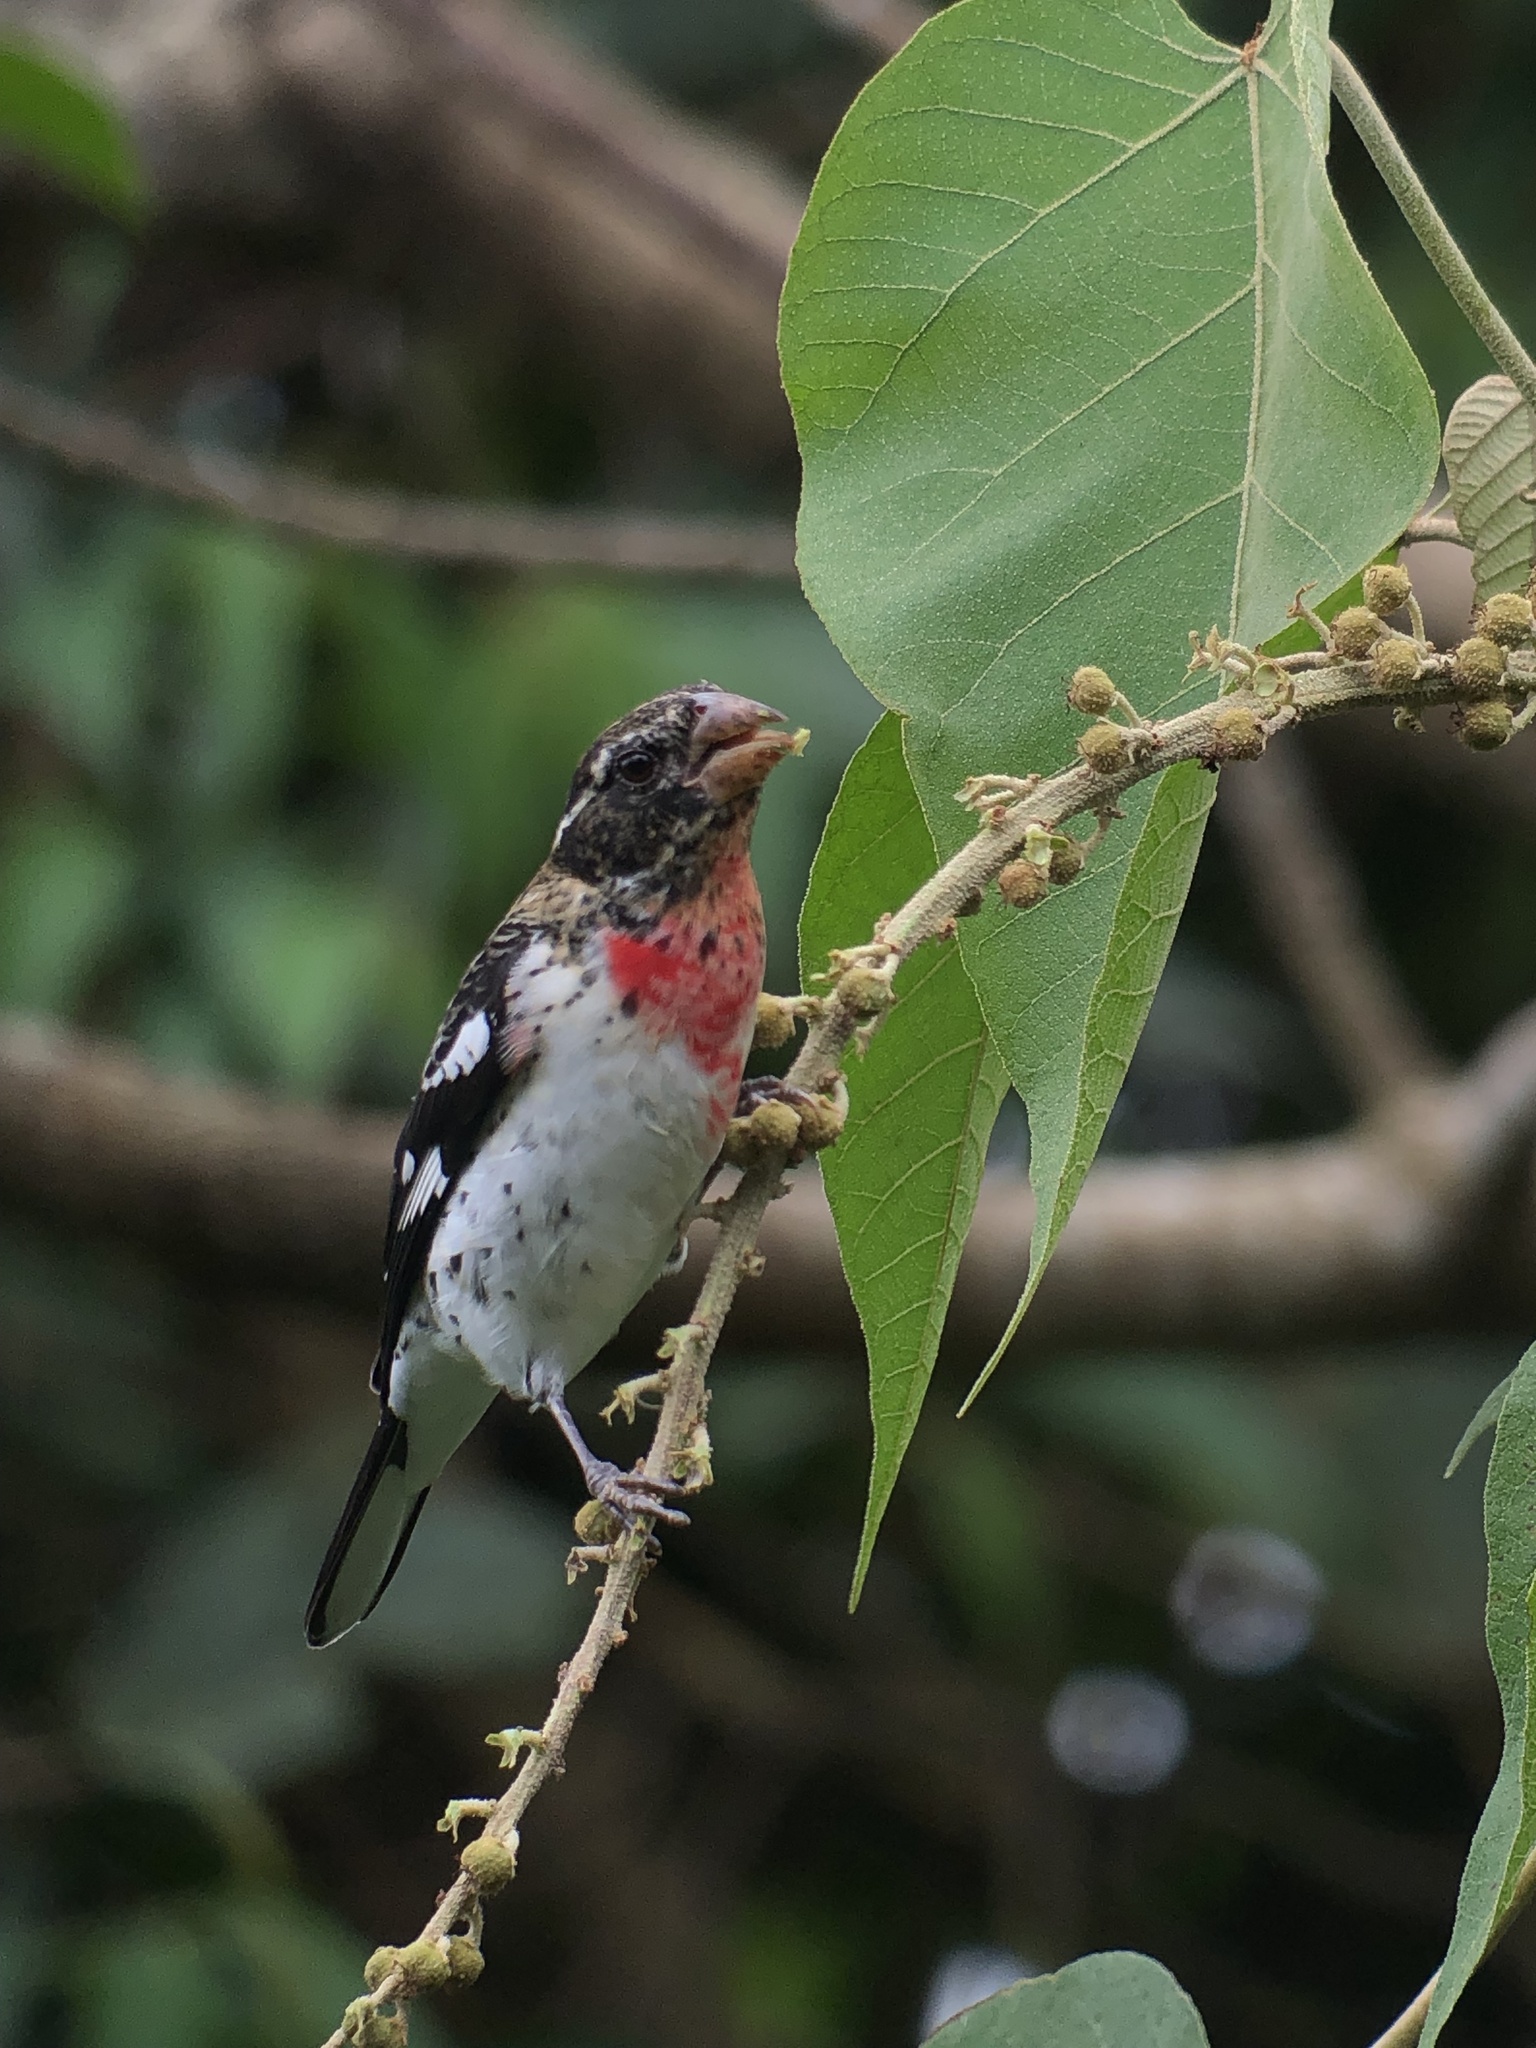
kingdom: Animalia
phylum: Chordata
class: Aves
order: Passeriformes
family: Cardinalidae
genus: Pheucticus
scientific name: Pheucticus ludovicianus
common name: Rose-breasted grosbeak
